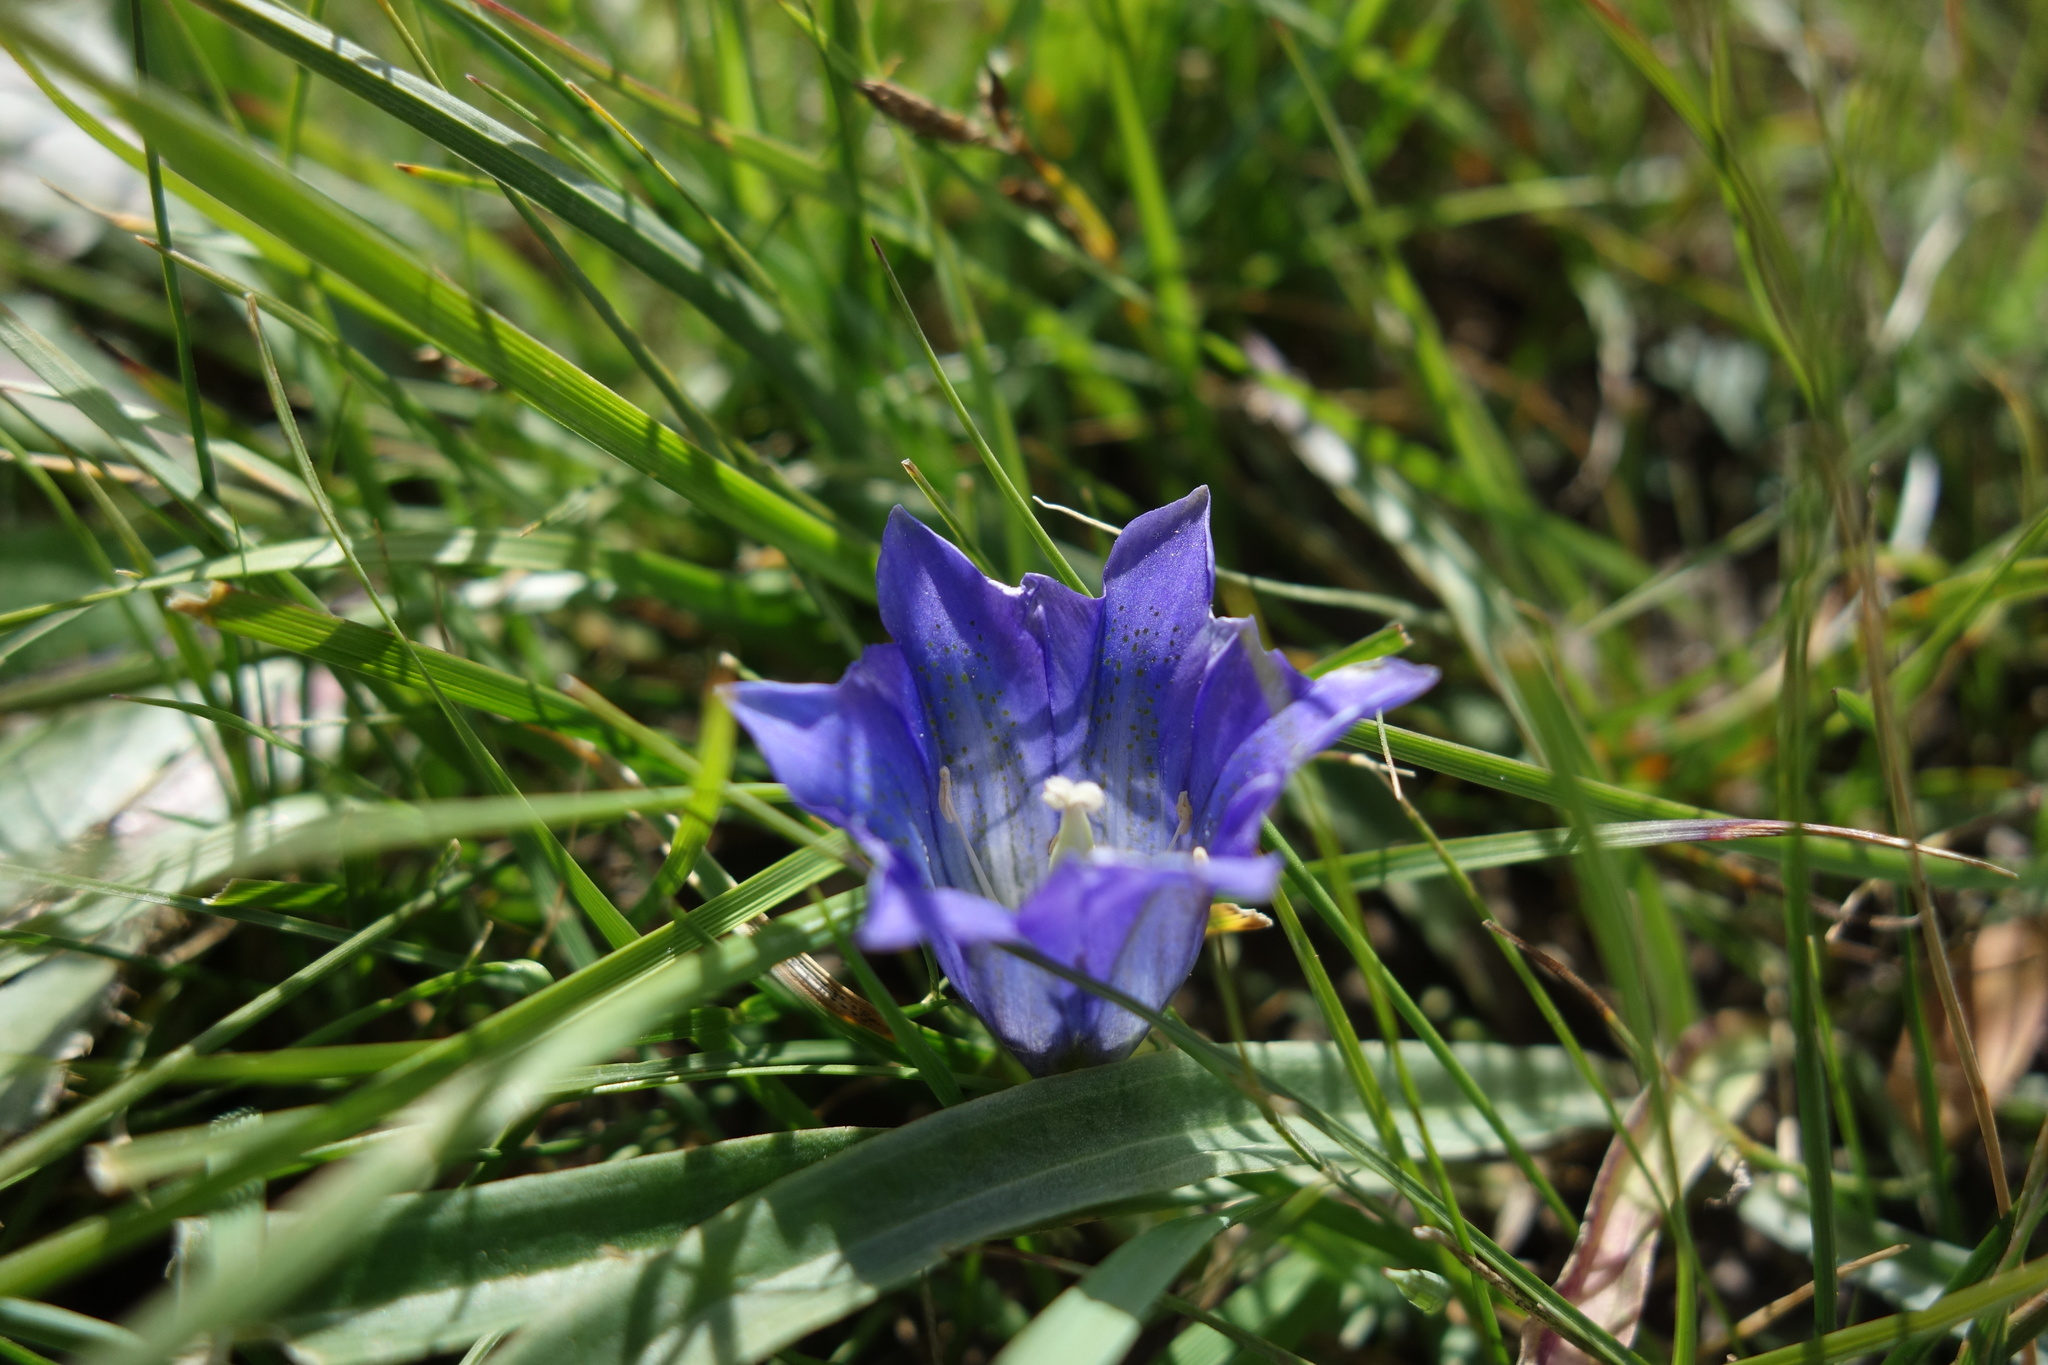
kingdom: Plantae
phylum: Tracheophyta
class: Magnoliopsida
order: Gentianales
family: Gentianaceae
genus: Gentiana
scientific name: Gentiana grandiflora
